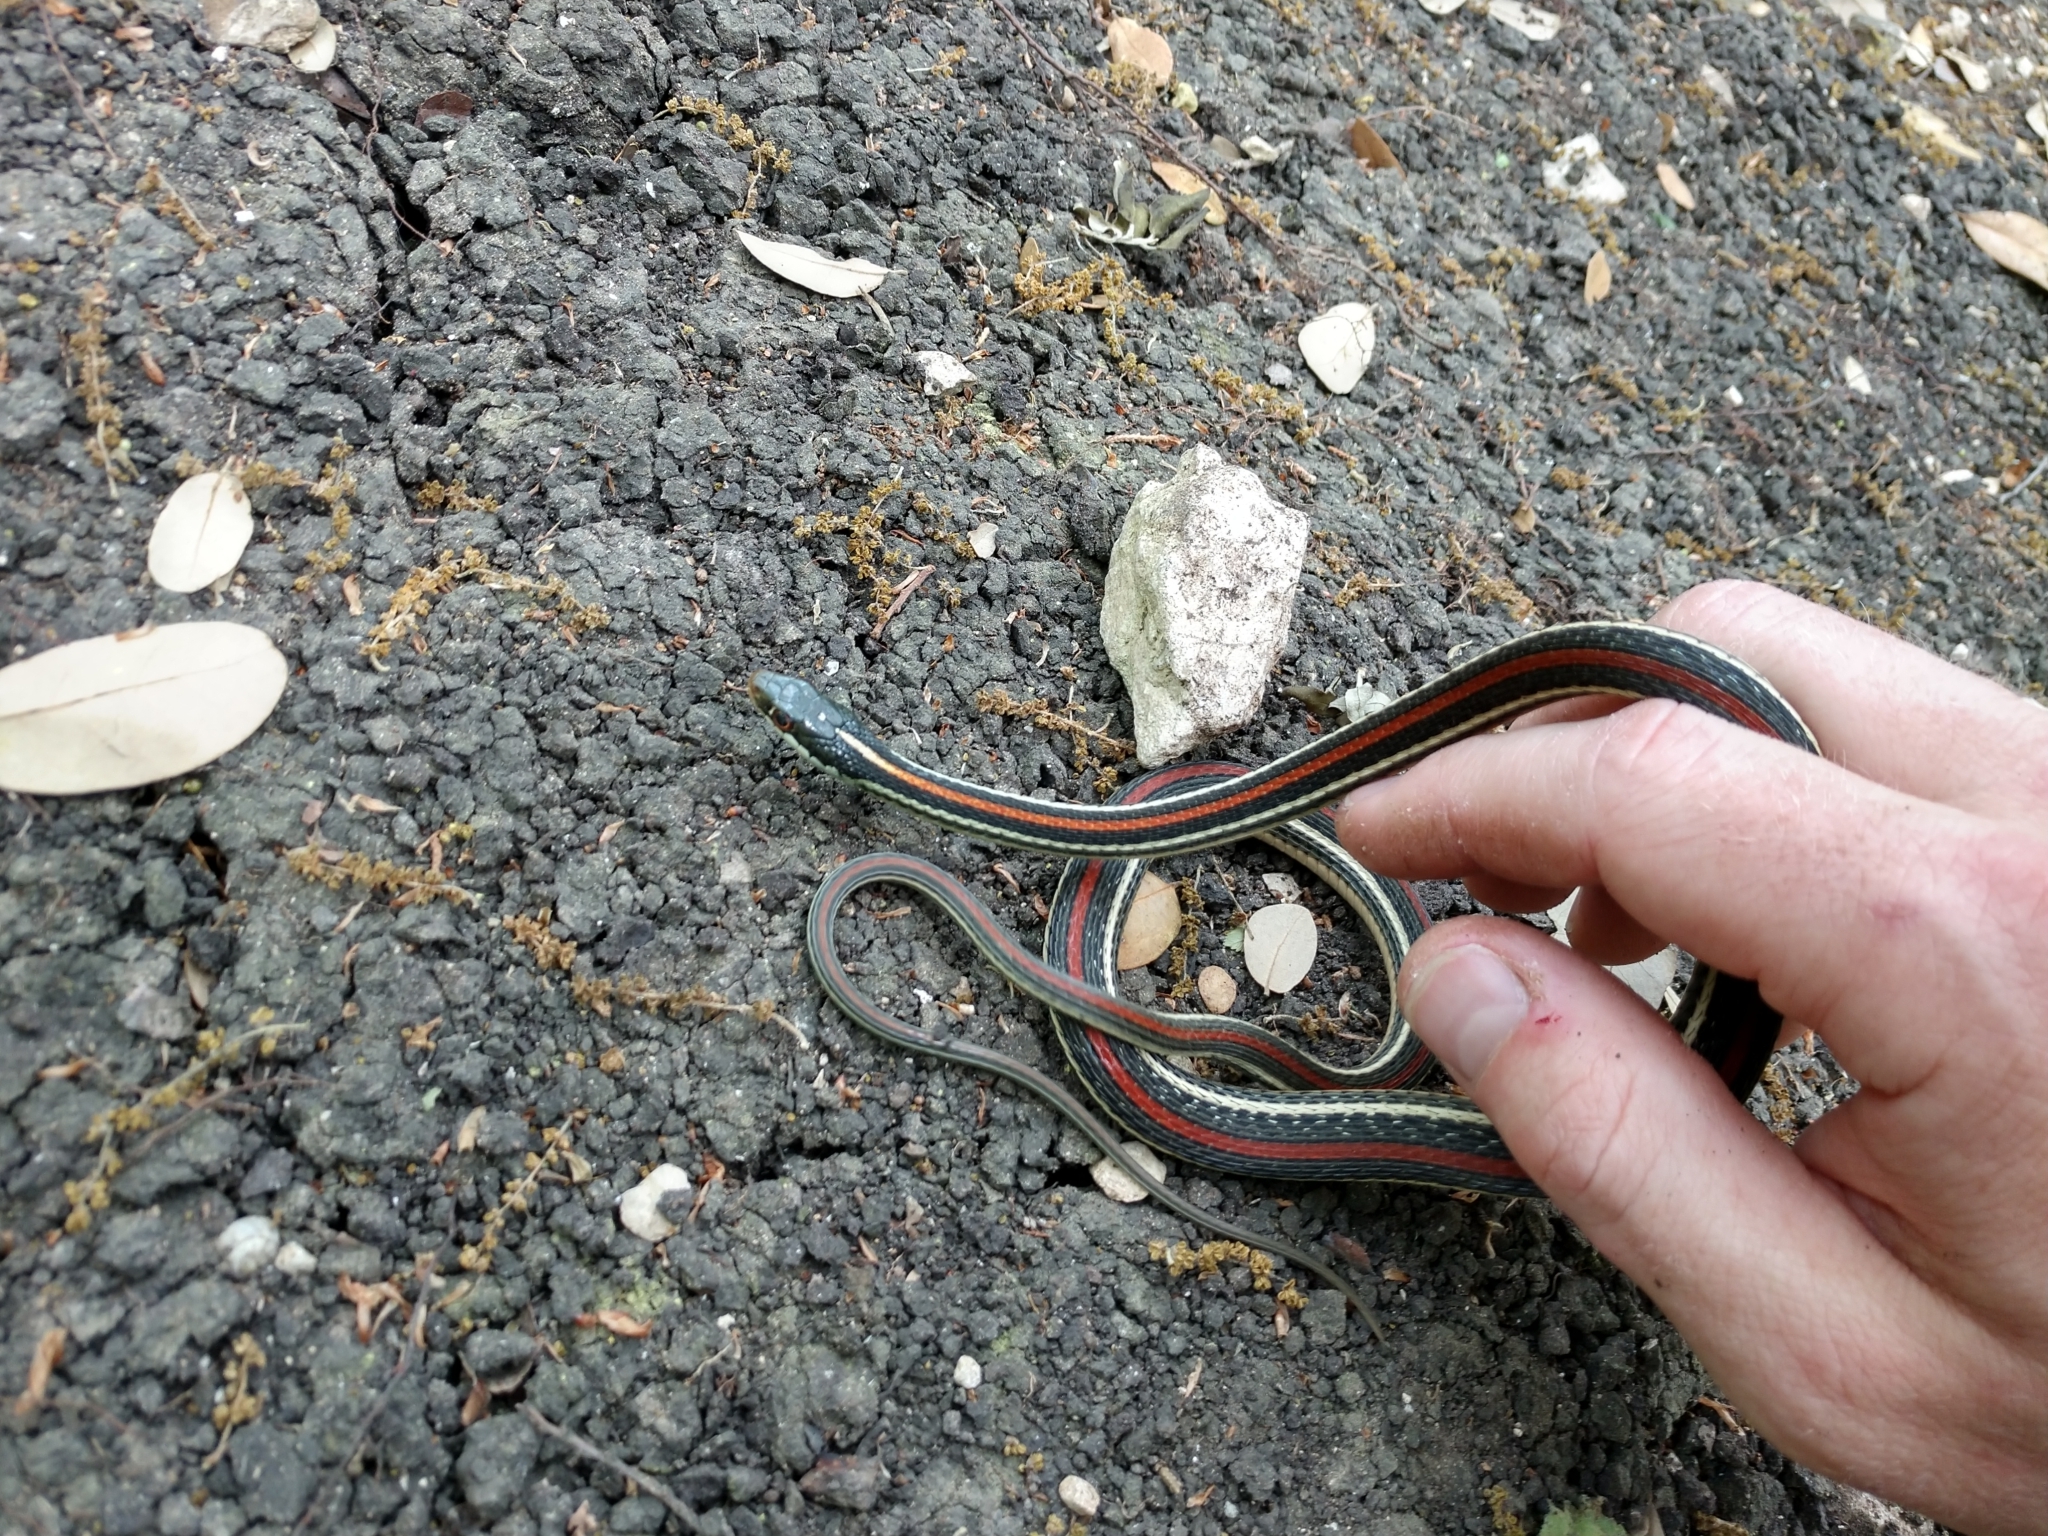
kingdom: Animalia
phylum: Chordata
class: Squamata
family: Colubridae
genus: Thamnophis
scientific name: Thamnophis proximus
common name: Western ribbon snake
